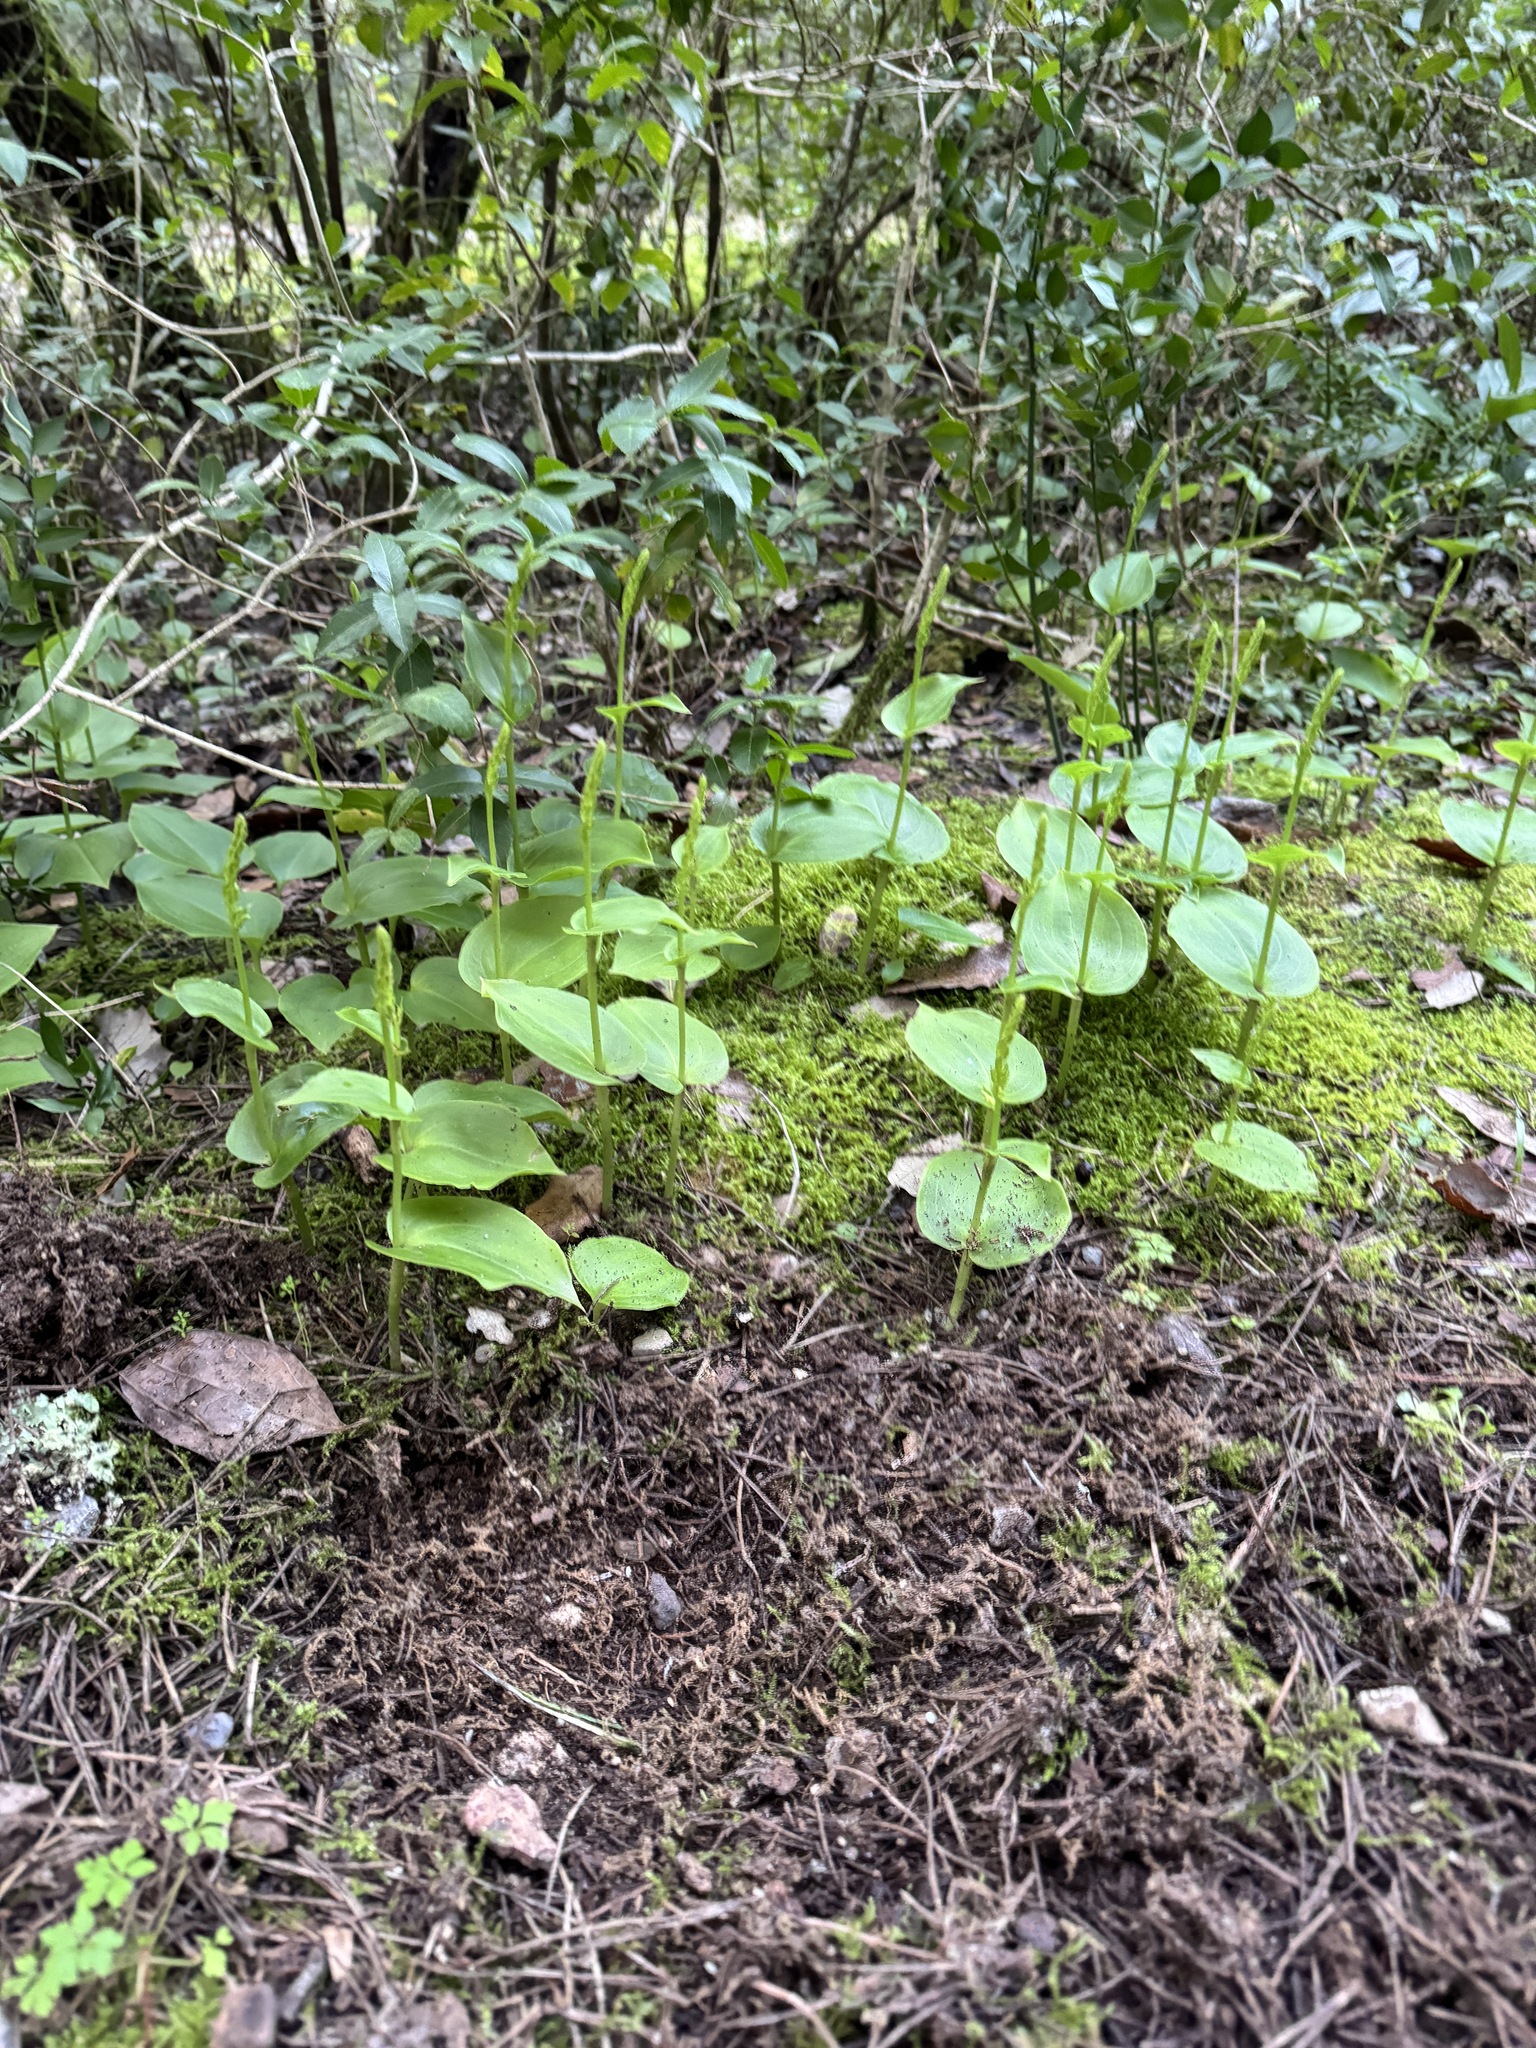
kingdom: Plantae
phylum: Tracheophyta
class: Liliopsida
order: Asparagales
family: Orchidaceae
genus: Gennaria
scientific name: Gennaria diphylla
